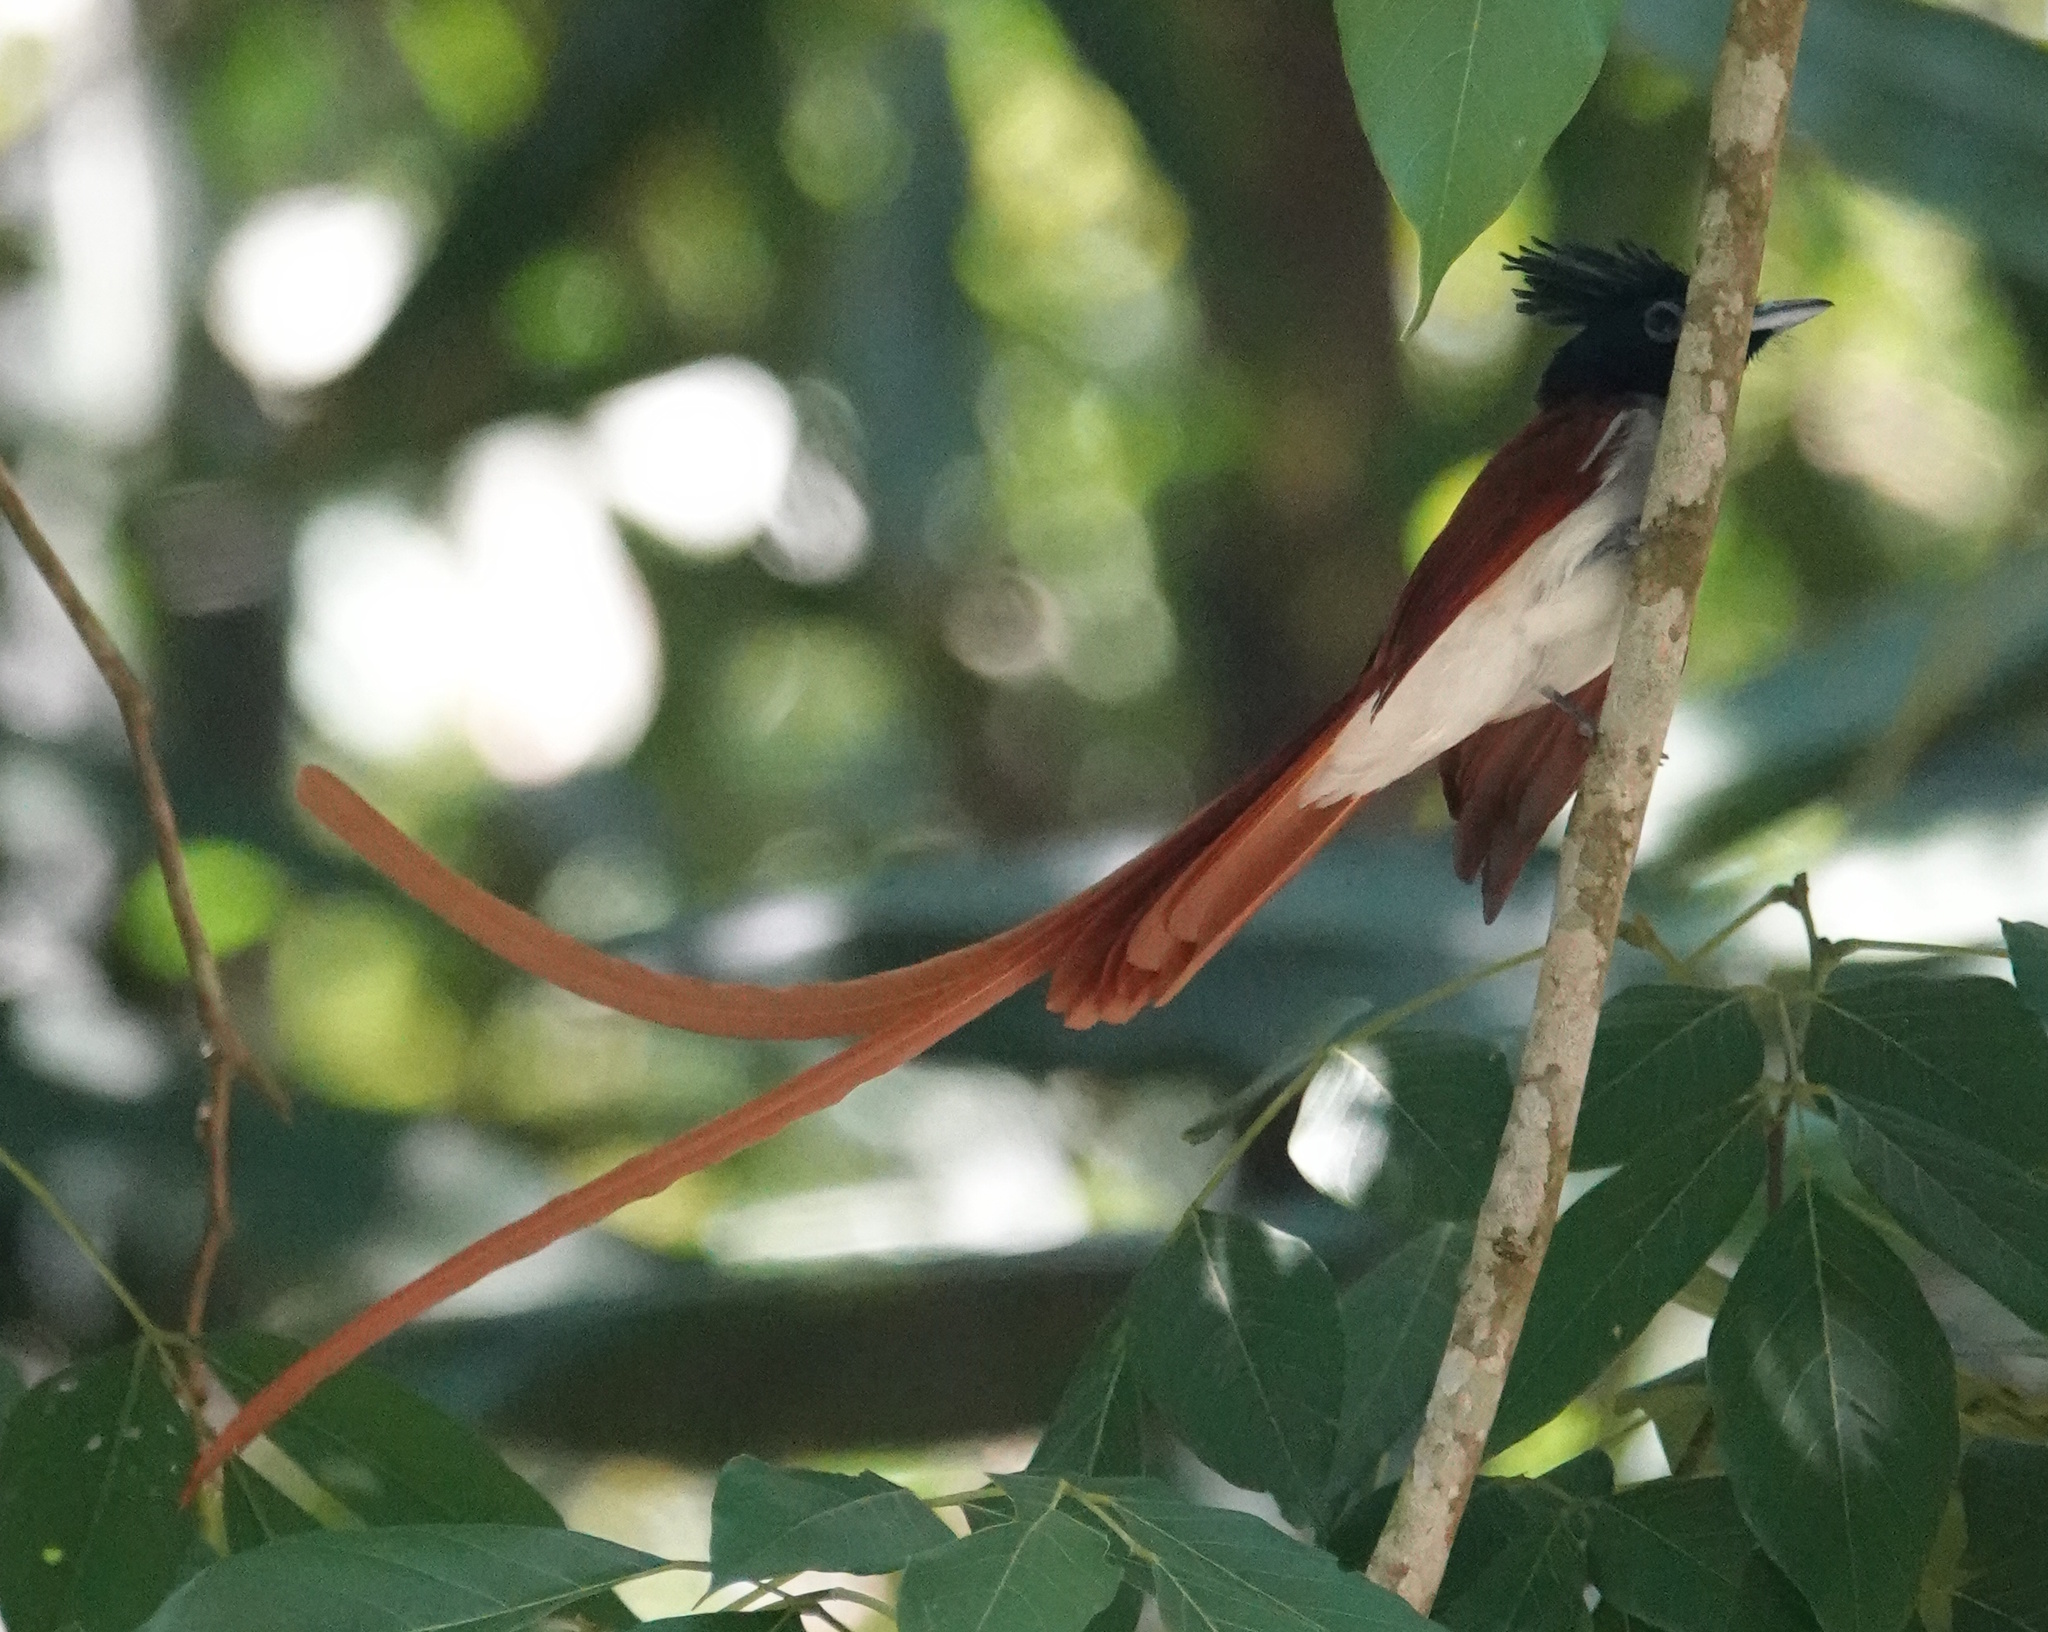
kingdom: Animalia
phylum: Chordata
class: Aves
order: Passeriformes
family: Monarchidae
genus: Terpsiphone
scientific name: Terpsiphone paradisi
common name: Indian paradise flycatcher
